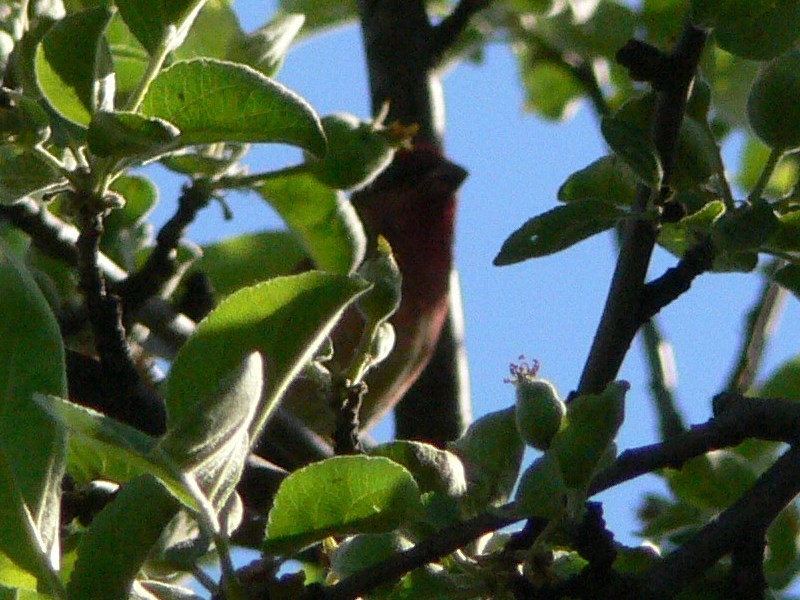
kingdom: Animalia
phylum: Chordata
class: Aves
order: Passeriformes
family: Fringillidae
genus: Carpodacus
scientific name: Carpodacus erythrinus
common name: Common rosefinch
